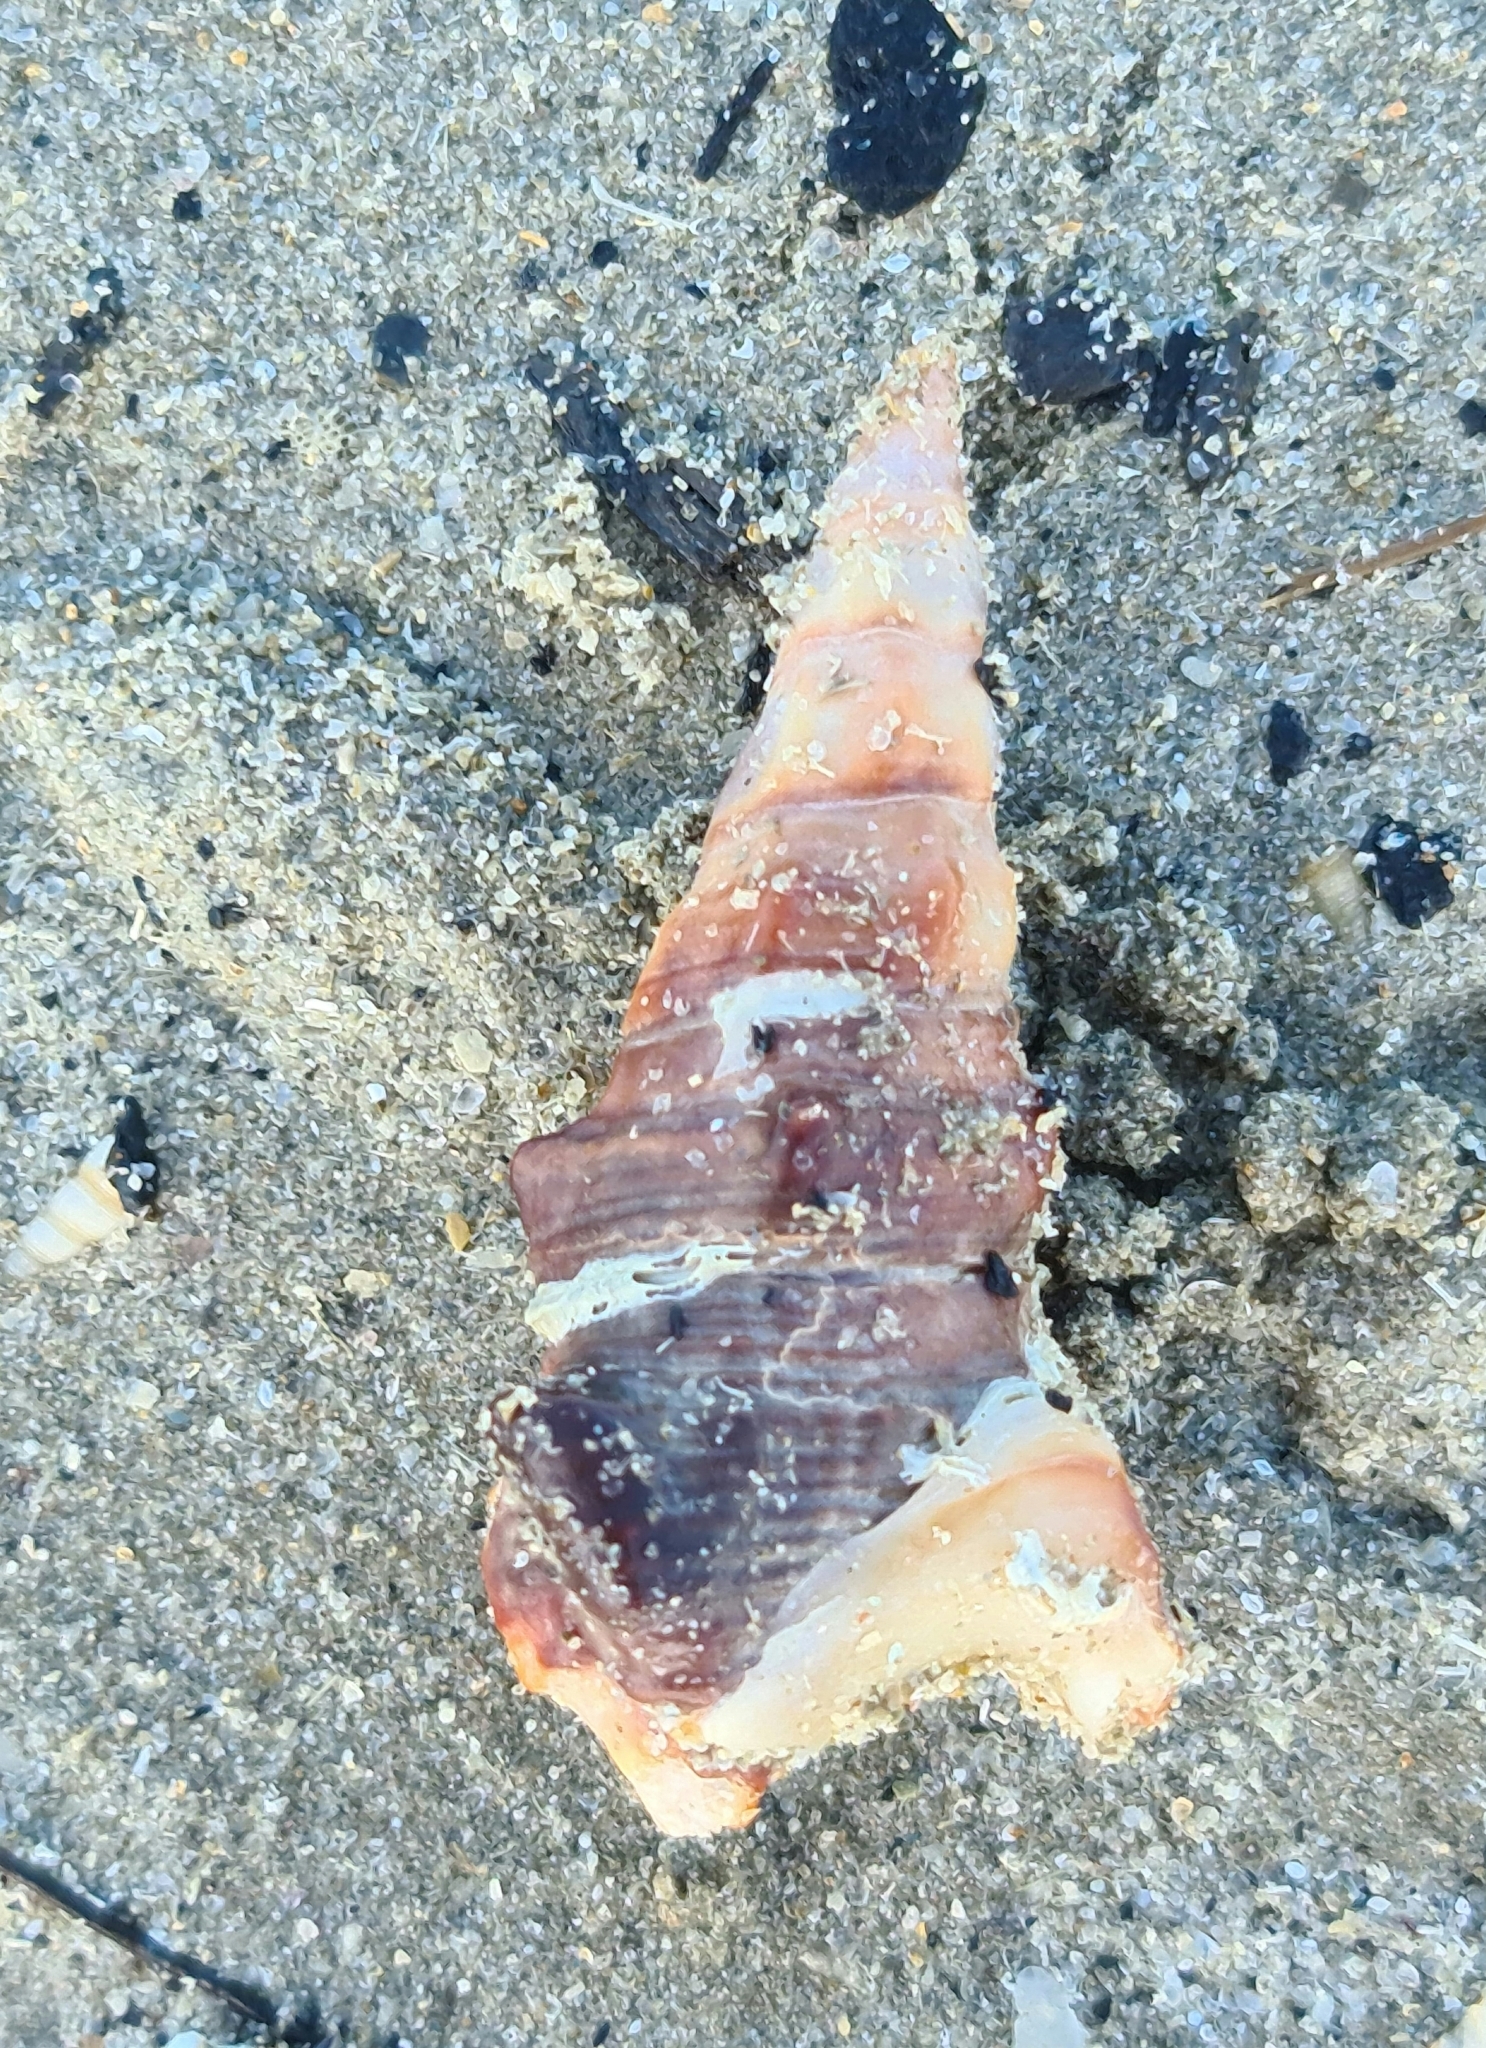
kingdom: Animalia
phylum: Mollusca
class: Gastropoda
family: Batillariidae
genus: Pyrazus
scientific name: Pyrazus ebeninus
